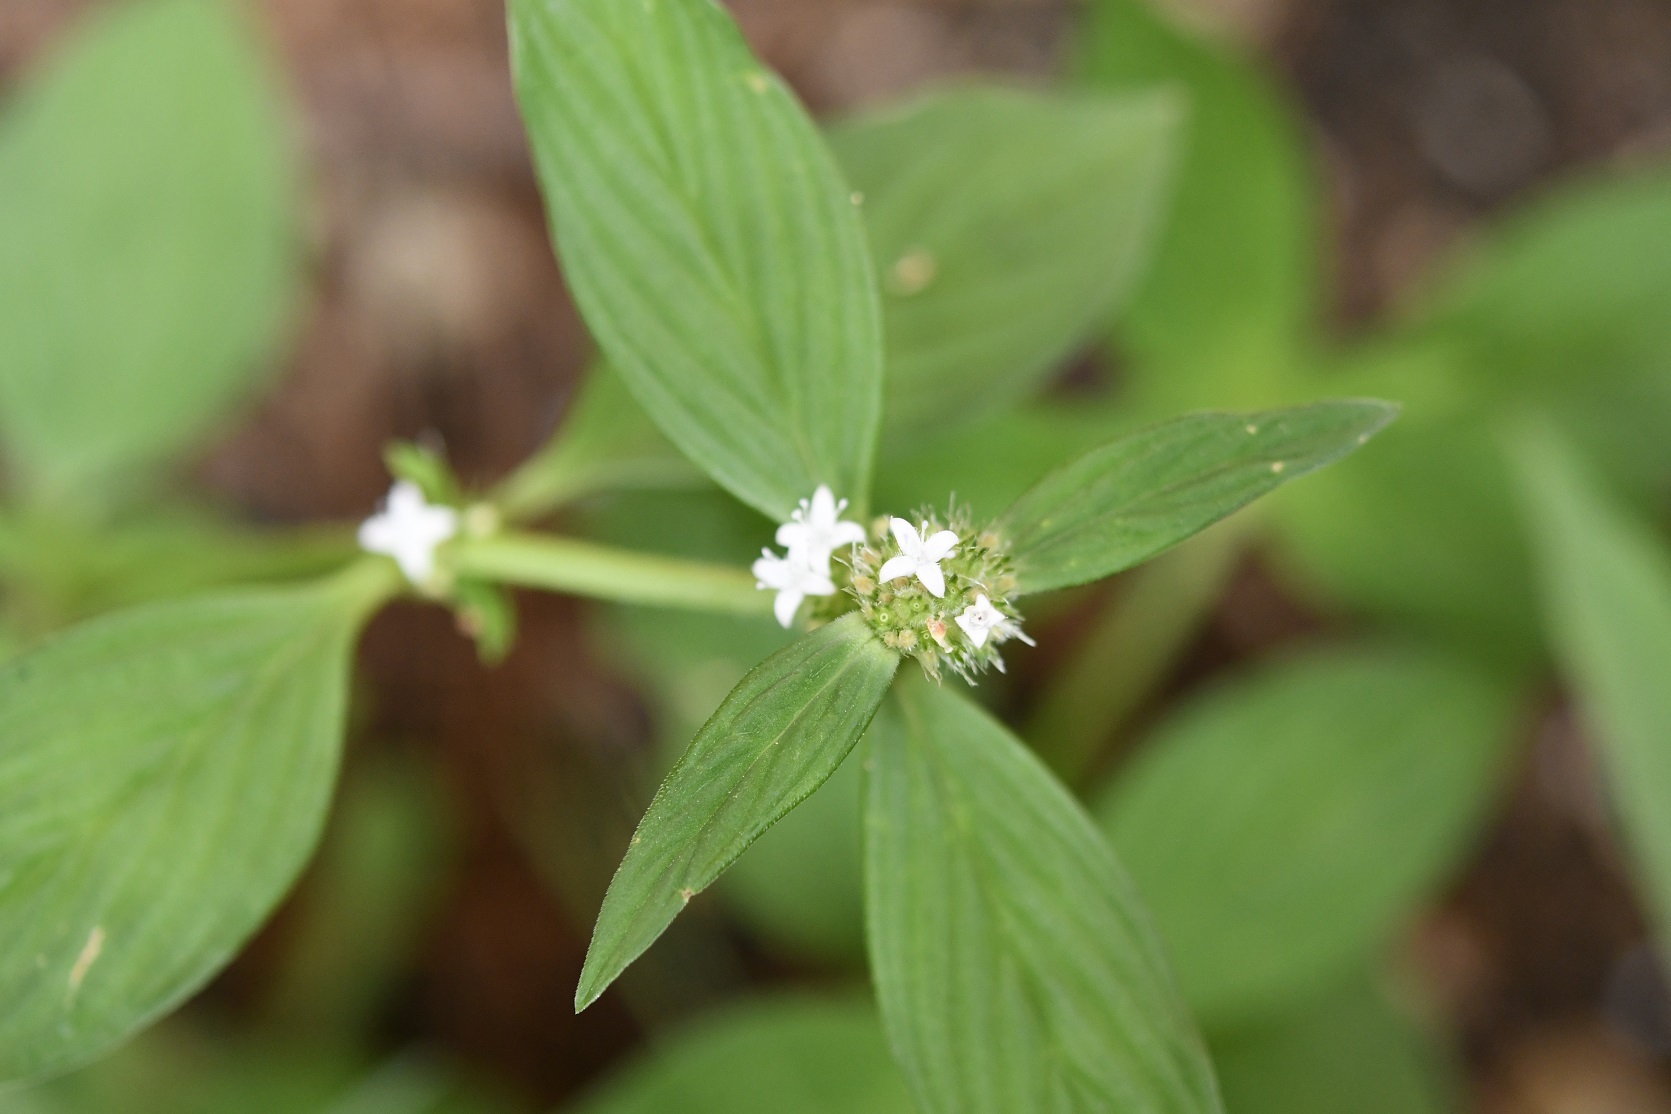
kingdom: Plantae
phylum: Tracheophyta
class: Magnoliopsida
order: Gentianales
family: Rubiaceae
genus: Spermacoce
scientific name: Spermacoce remota
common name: Woodland false buttonweed
